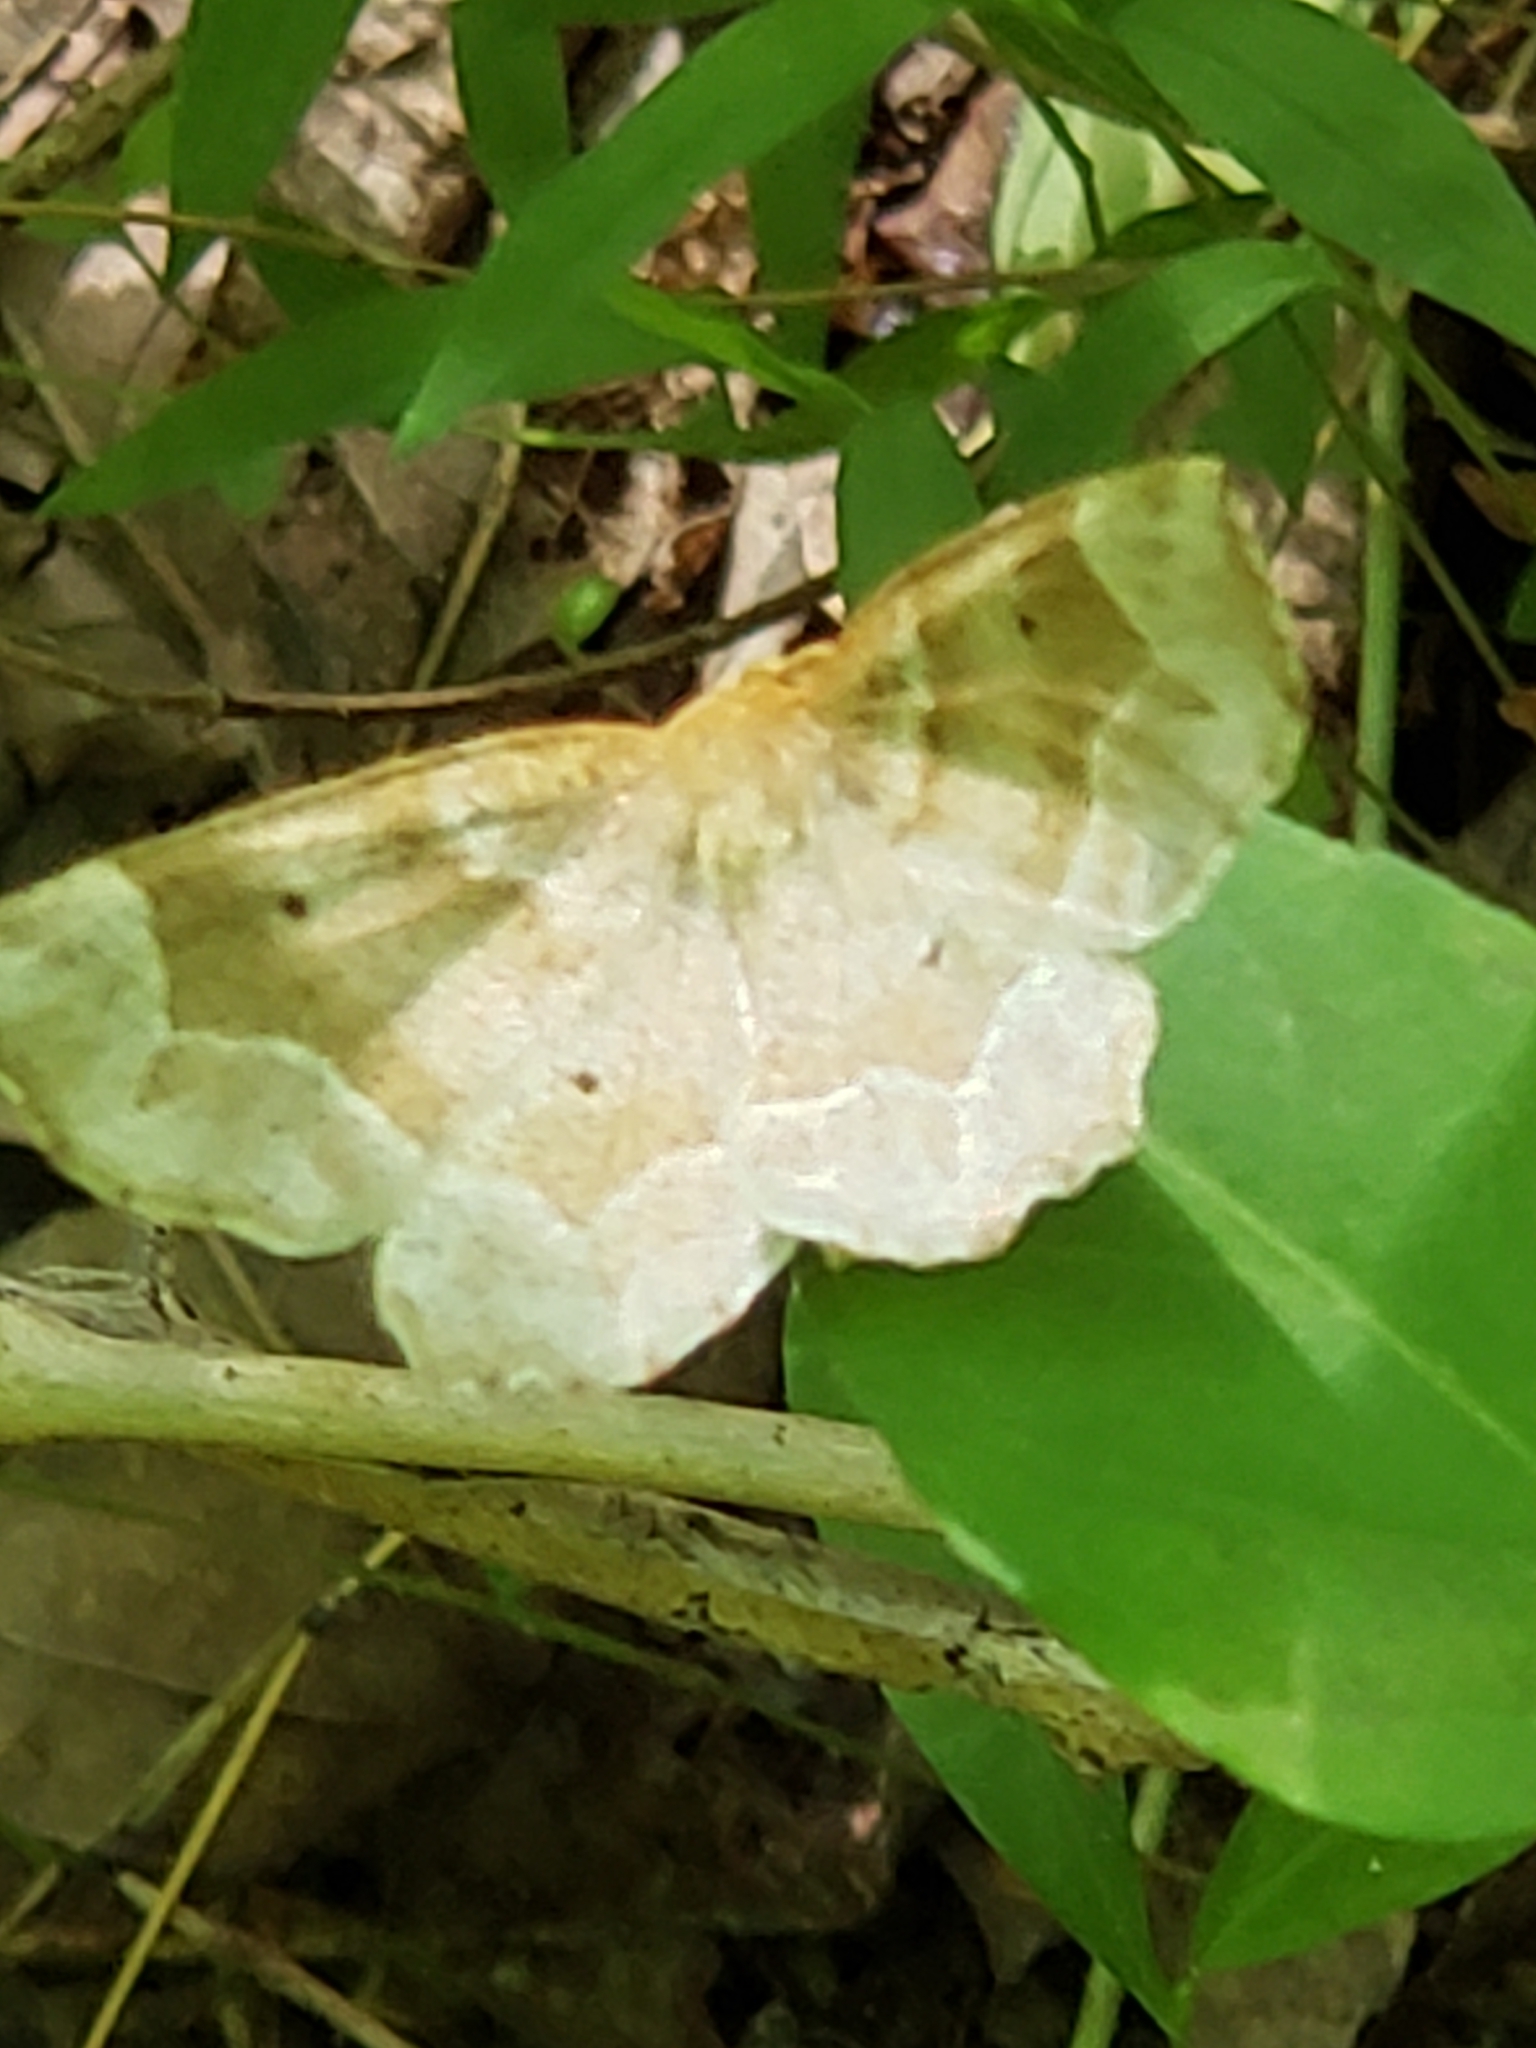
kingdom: Animalia
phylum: Arthropoda
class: Insecta
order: Lepidoptera
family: Geometridae
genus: Metarranthis
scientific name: Metarranthis indeclinata
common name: Pale metarranthis
